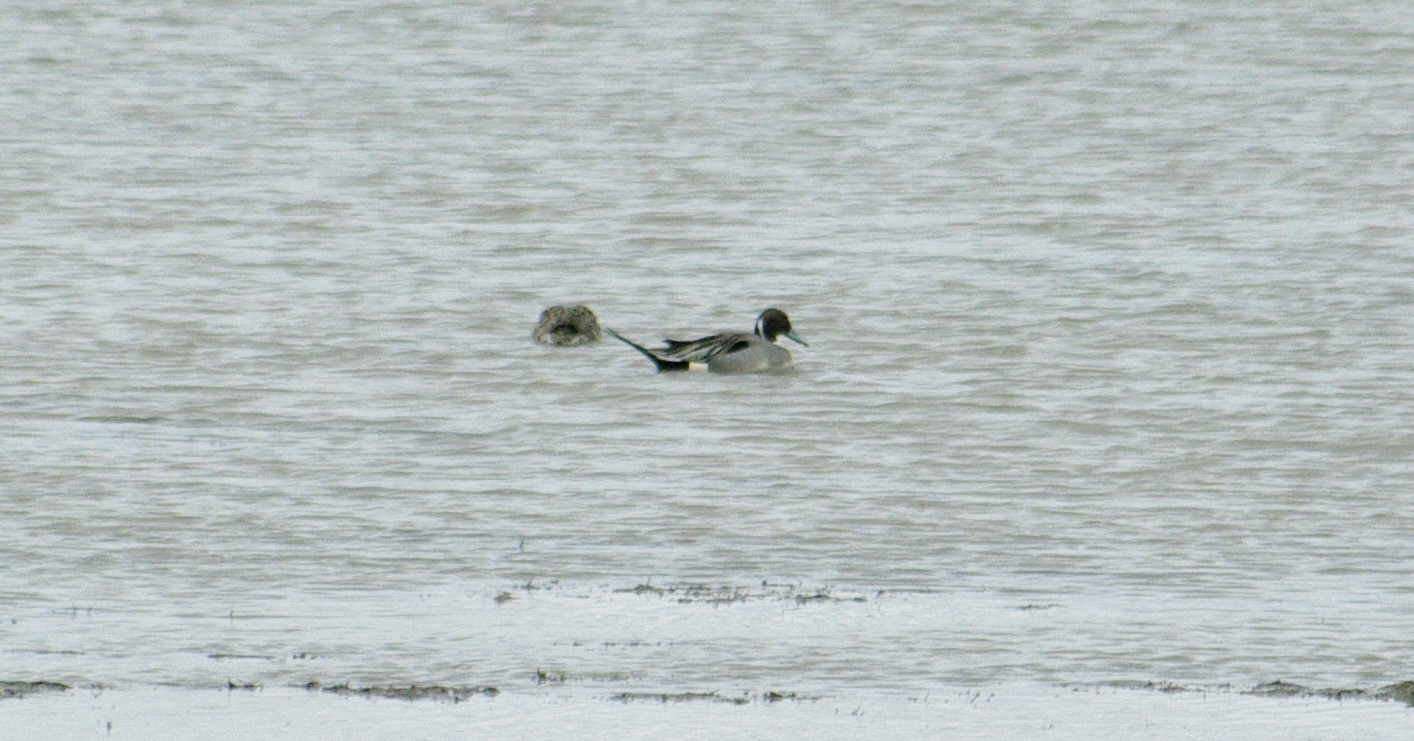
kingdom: Animalia
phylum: Chordata
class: Aves
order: Anseriformes
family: Anatidae
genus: Anas
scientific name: Anas acuta
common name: Northern pintail
